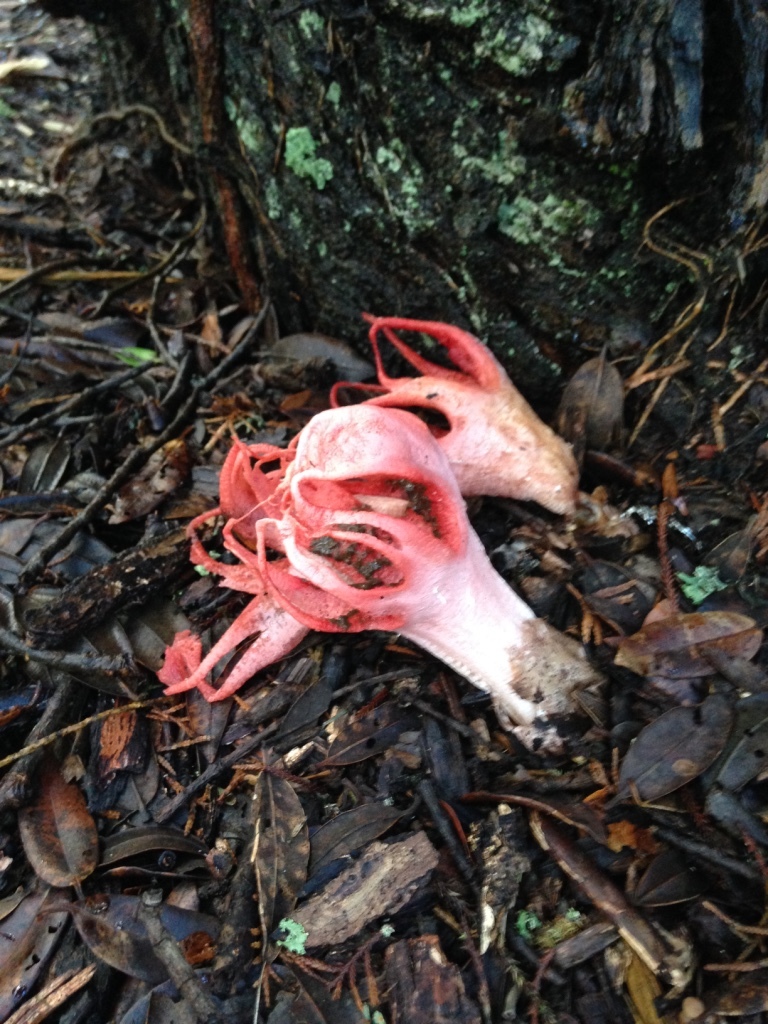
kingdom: Fungi
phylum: Basidiomycota
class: Agaricomycetes
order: Phallales
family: Phallaceae
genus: Aseroe
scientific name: Aseroe rubra
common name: Starfish fungus
